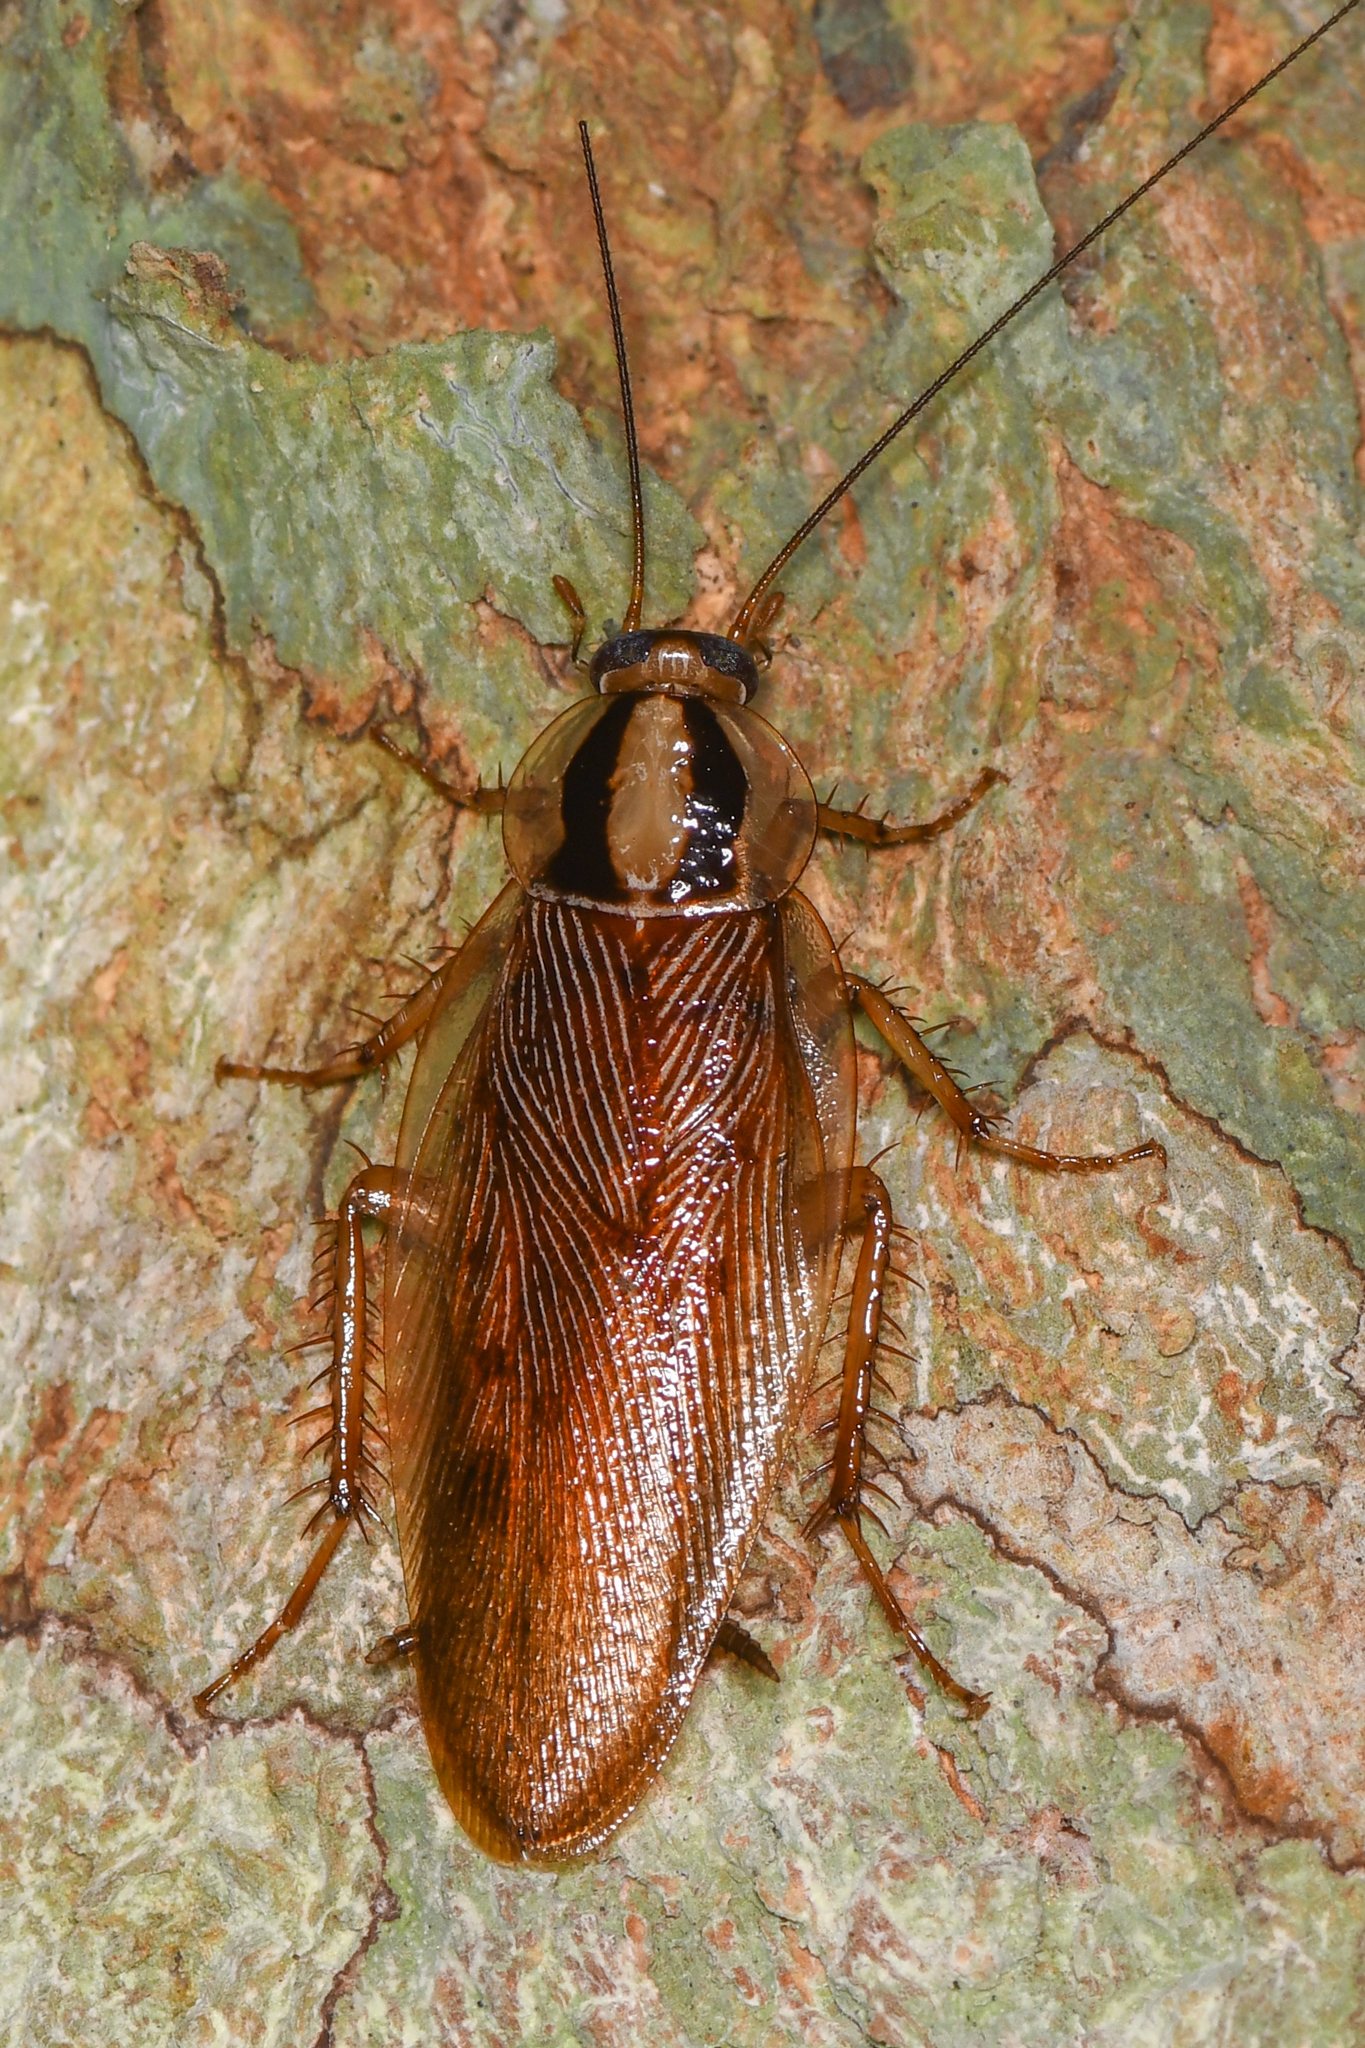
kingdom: Animalia
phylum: Arthropoda
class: Insecta
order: Blattodea
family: Ectobiidae
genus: Macrophyllodromia
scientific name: Macrophyllodromia maximiliani
